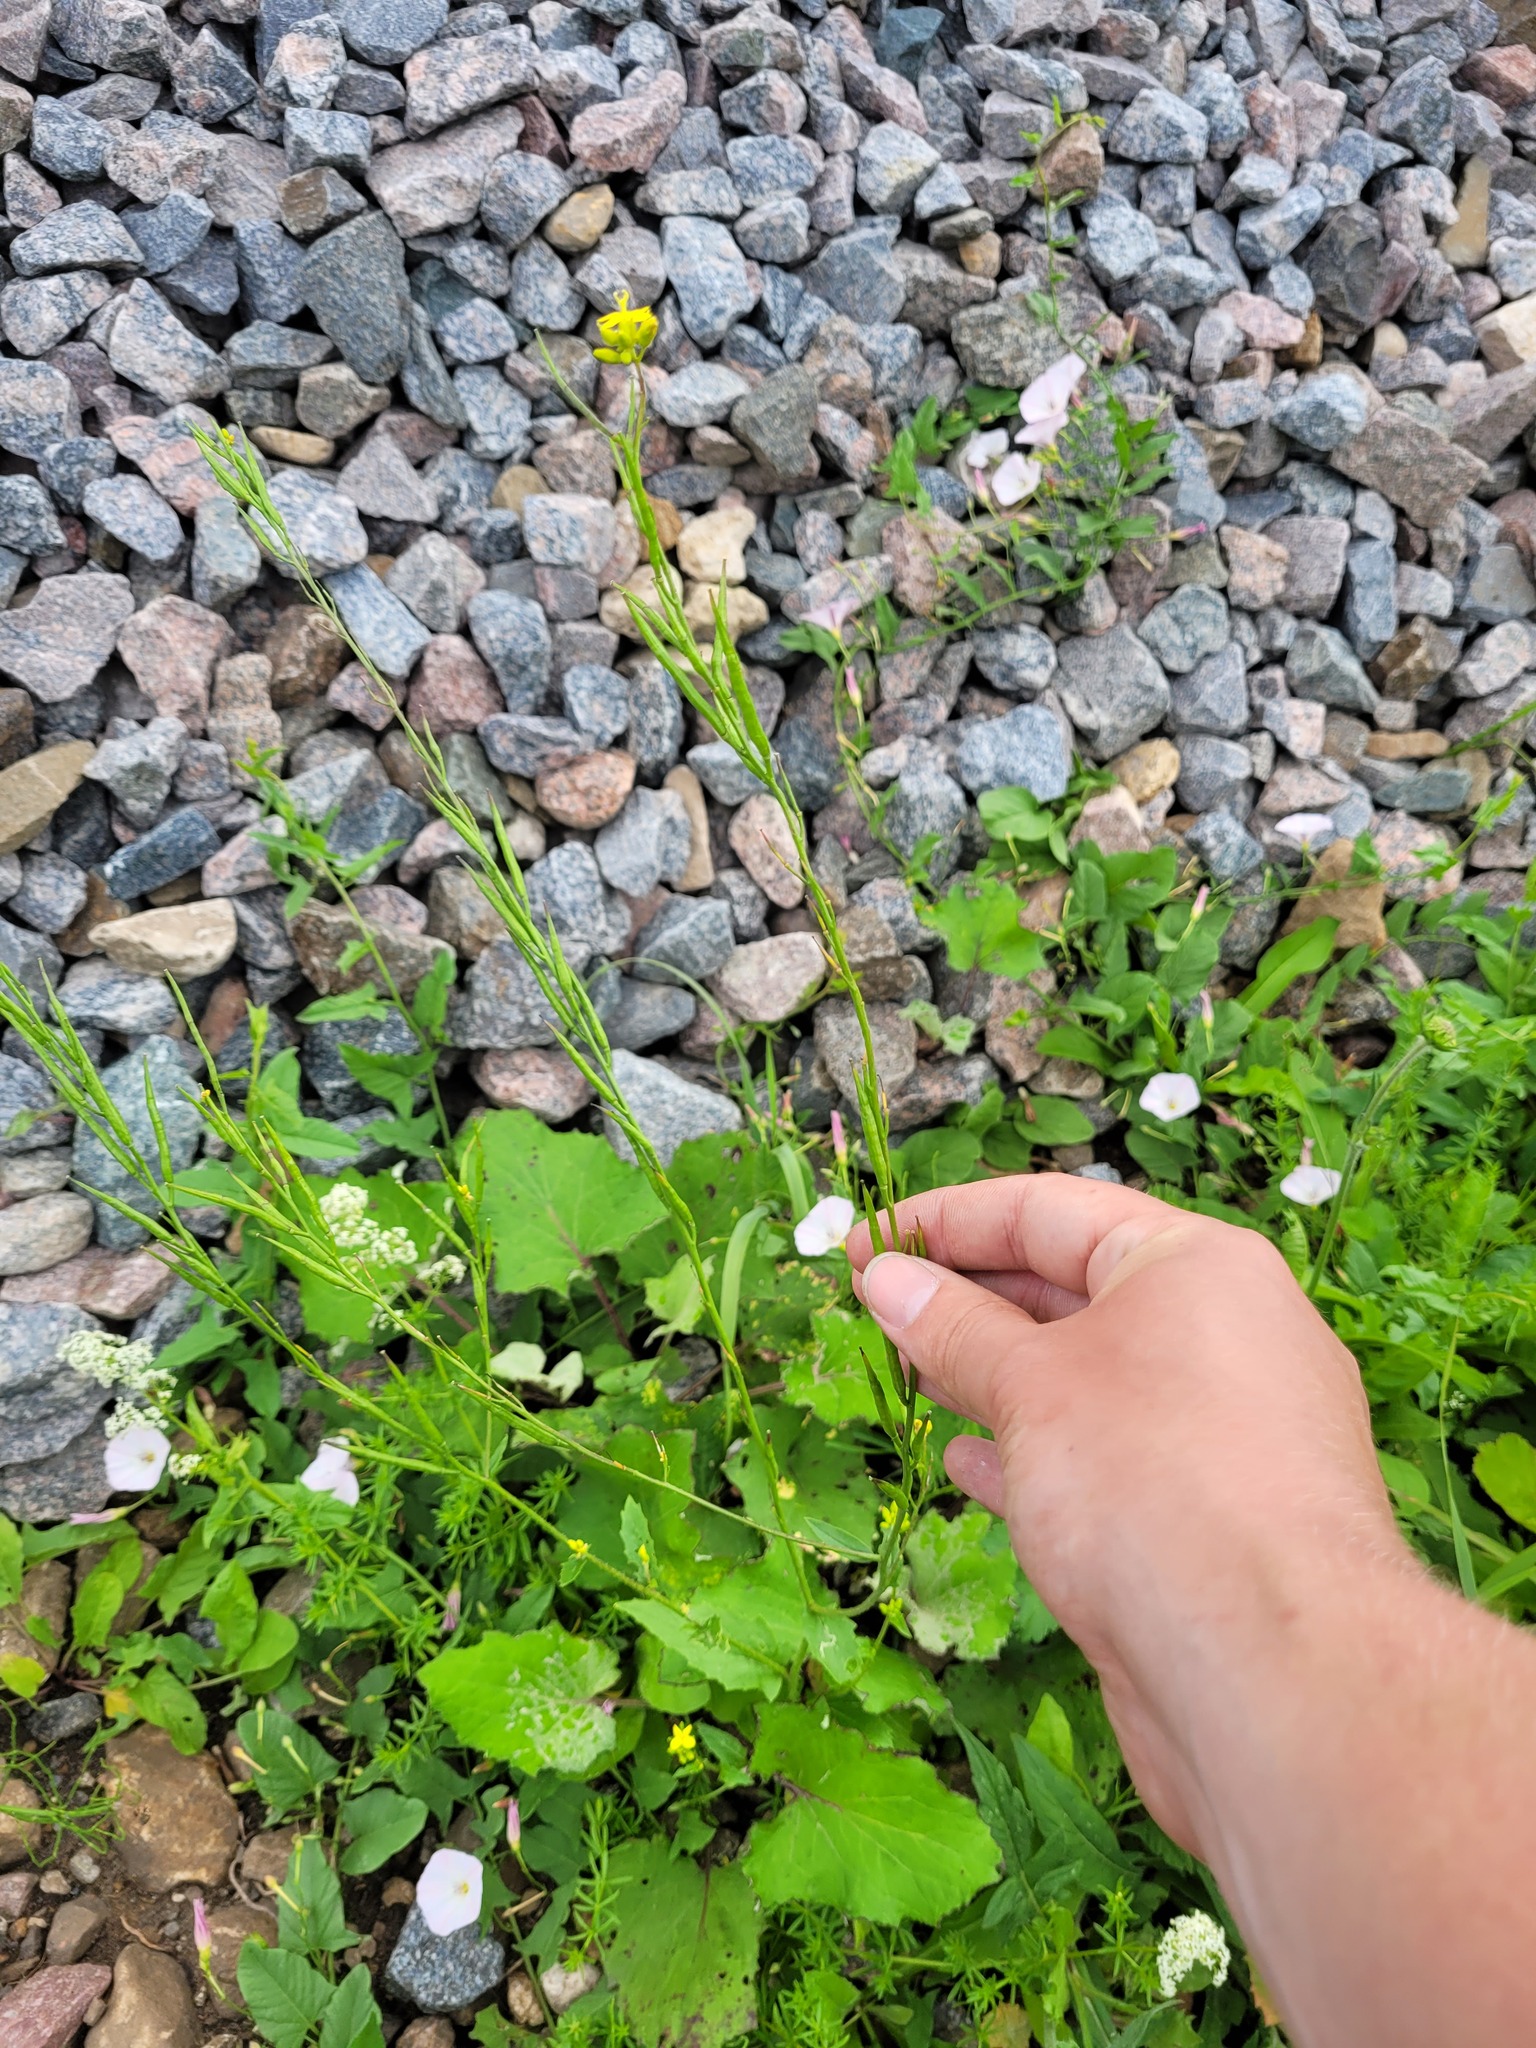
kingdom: Plantae
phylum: Tracheophyta
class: Magnoliopsida
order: Brassicales
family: Brassicaceae
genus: Sinapis
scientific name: Sinapis arvensis
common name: Charlock
